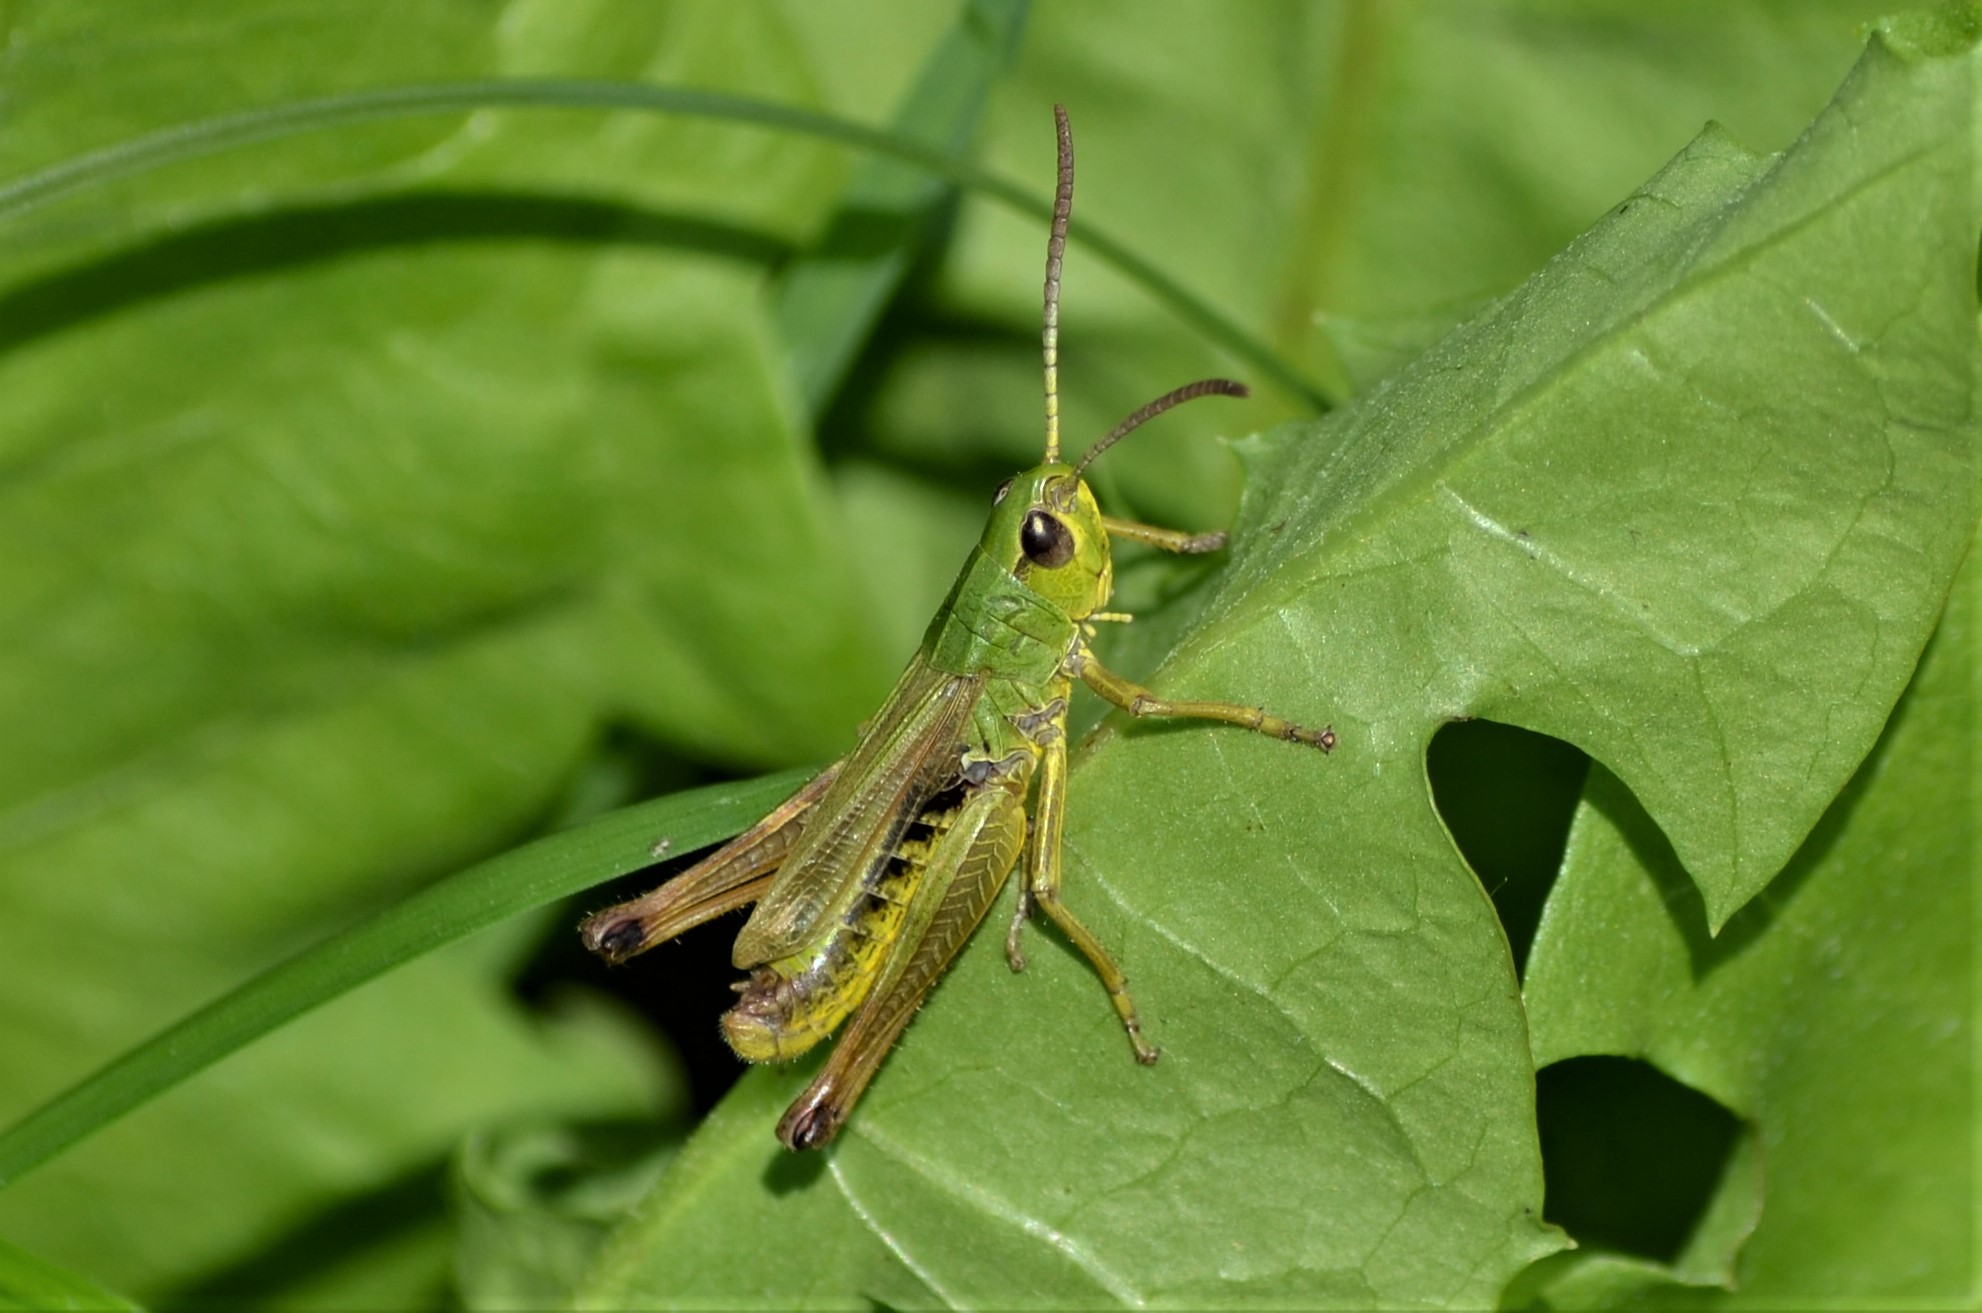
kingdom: Animalia
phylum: Arthropoda
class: Insecta
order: Orthoptera
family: Acrididae
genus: Pseudochorthippus
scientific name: Pseudochorthippus parallelus
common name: Meadow grasshopper
